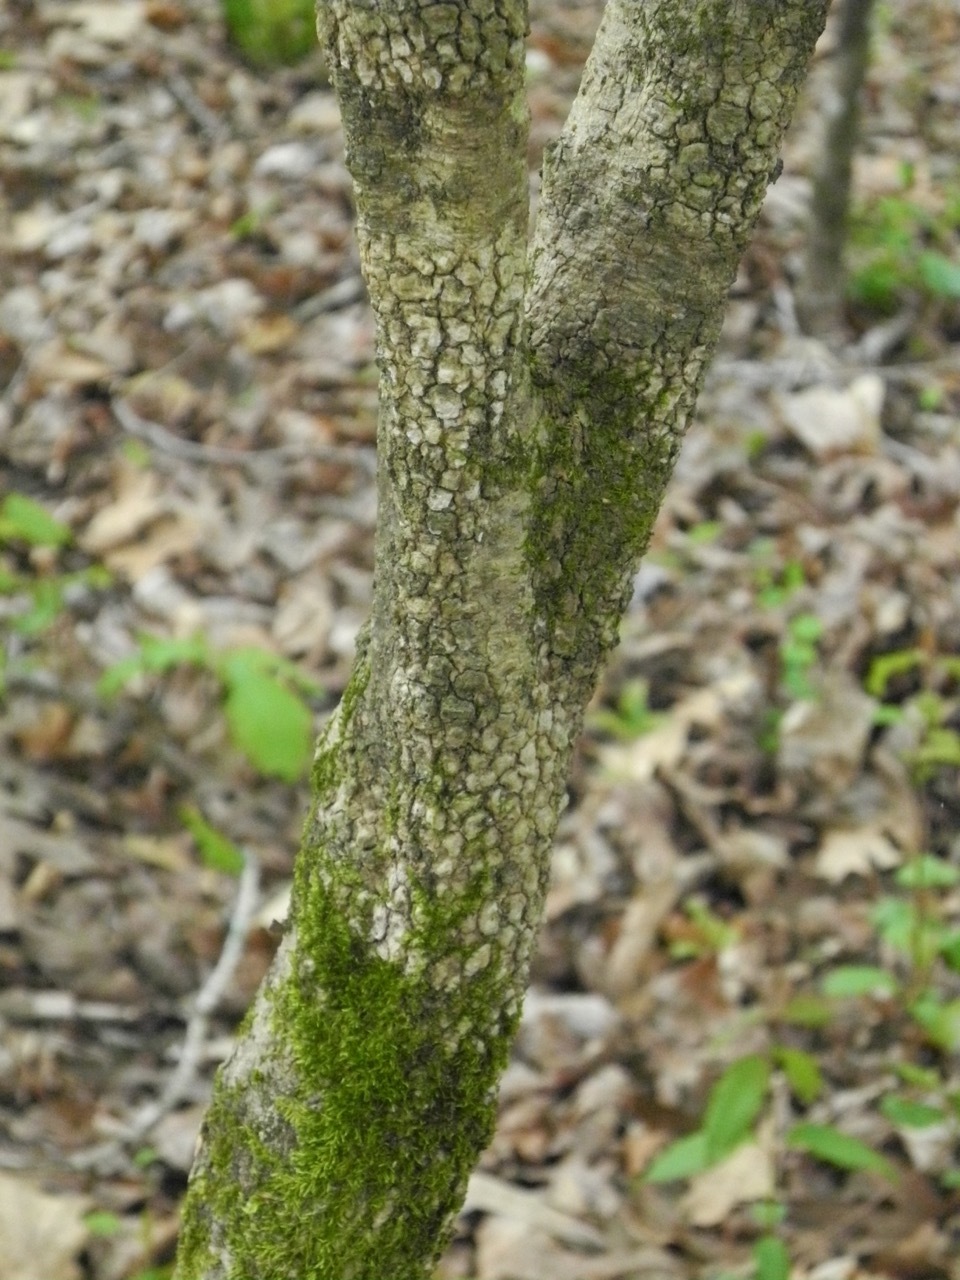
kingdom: Plantae
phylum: Tracheophyta
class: Magnoliopsida
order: Dipsacales
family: Viburnaceae
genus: Viburnum
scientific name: Viburnum prunifolium
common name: Black haw
